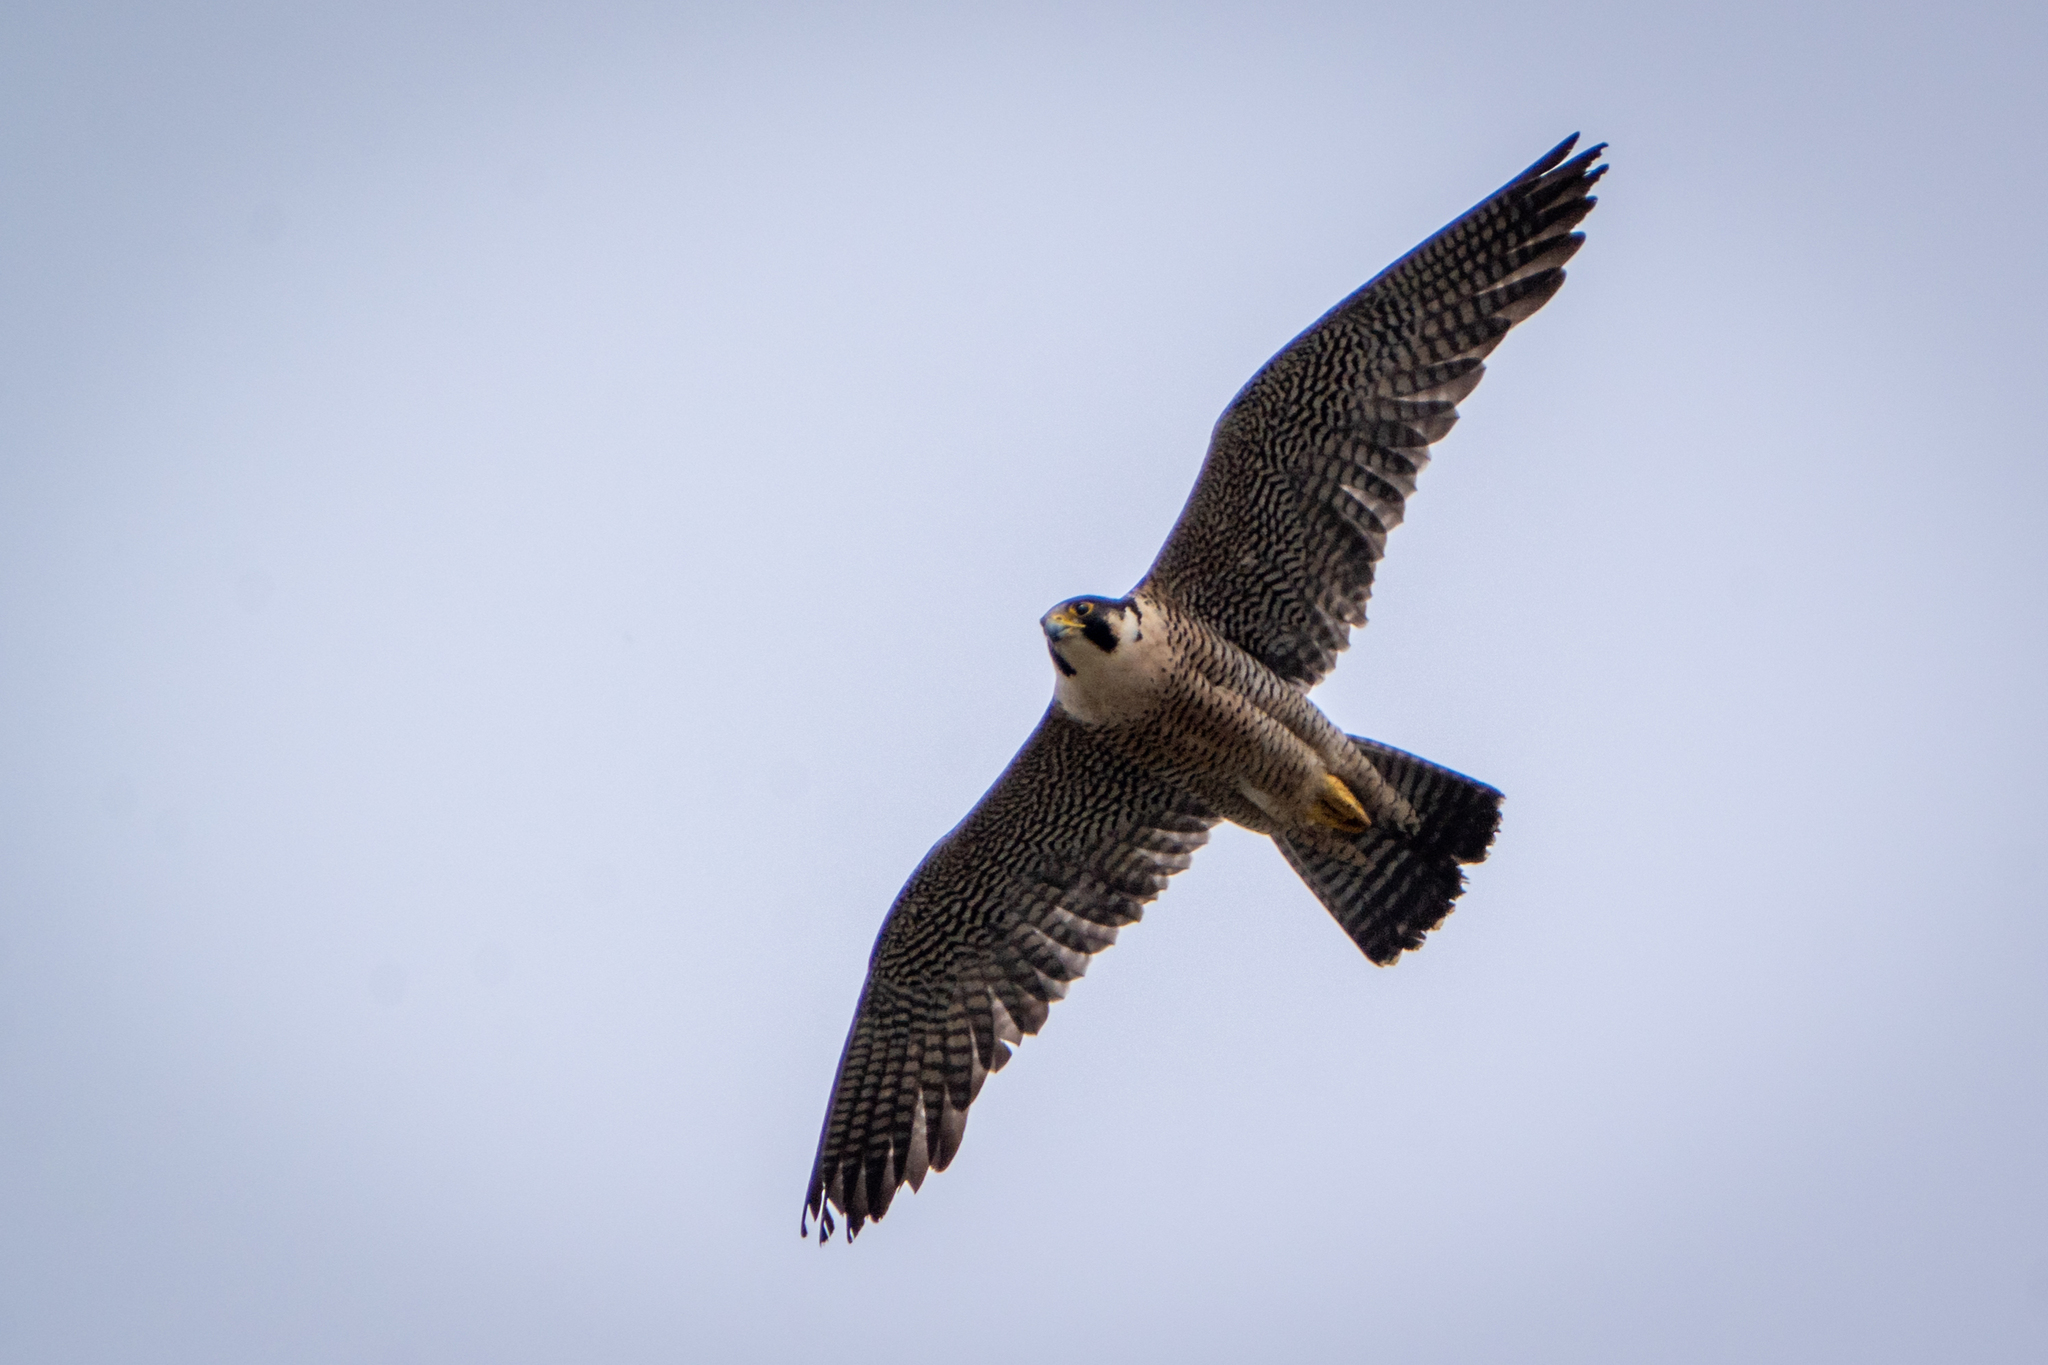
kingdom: Animalia
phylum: Chordata
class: Aves
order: Falconiformes
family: Falconidae
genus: Falco
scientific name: Falco peregrinus
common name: Peregrine falcon
